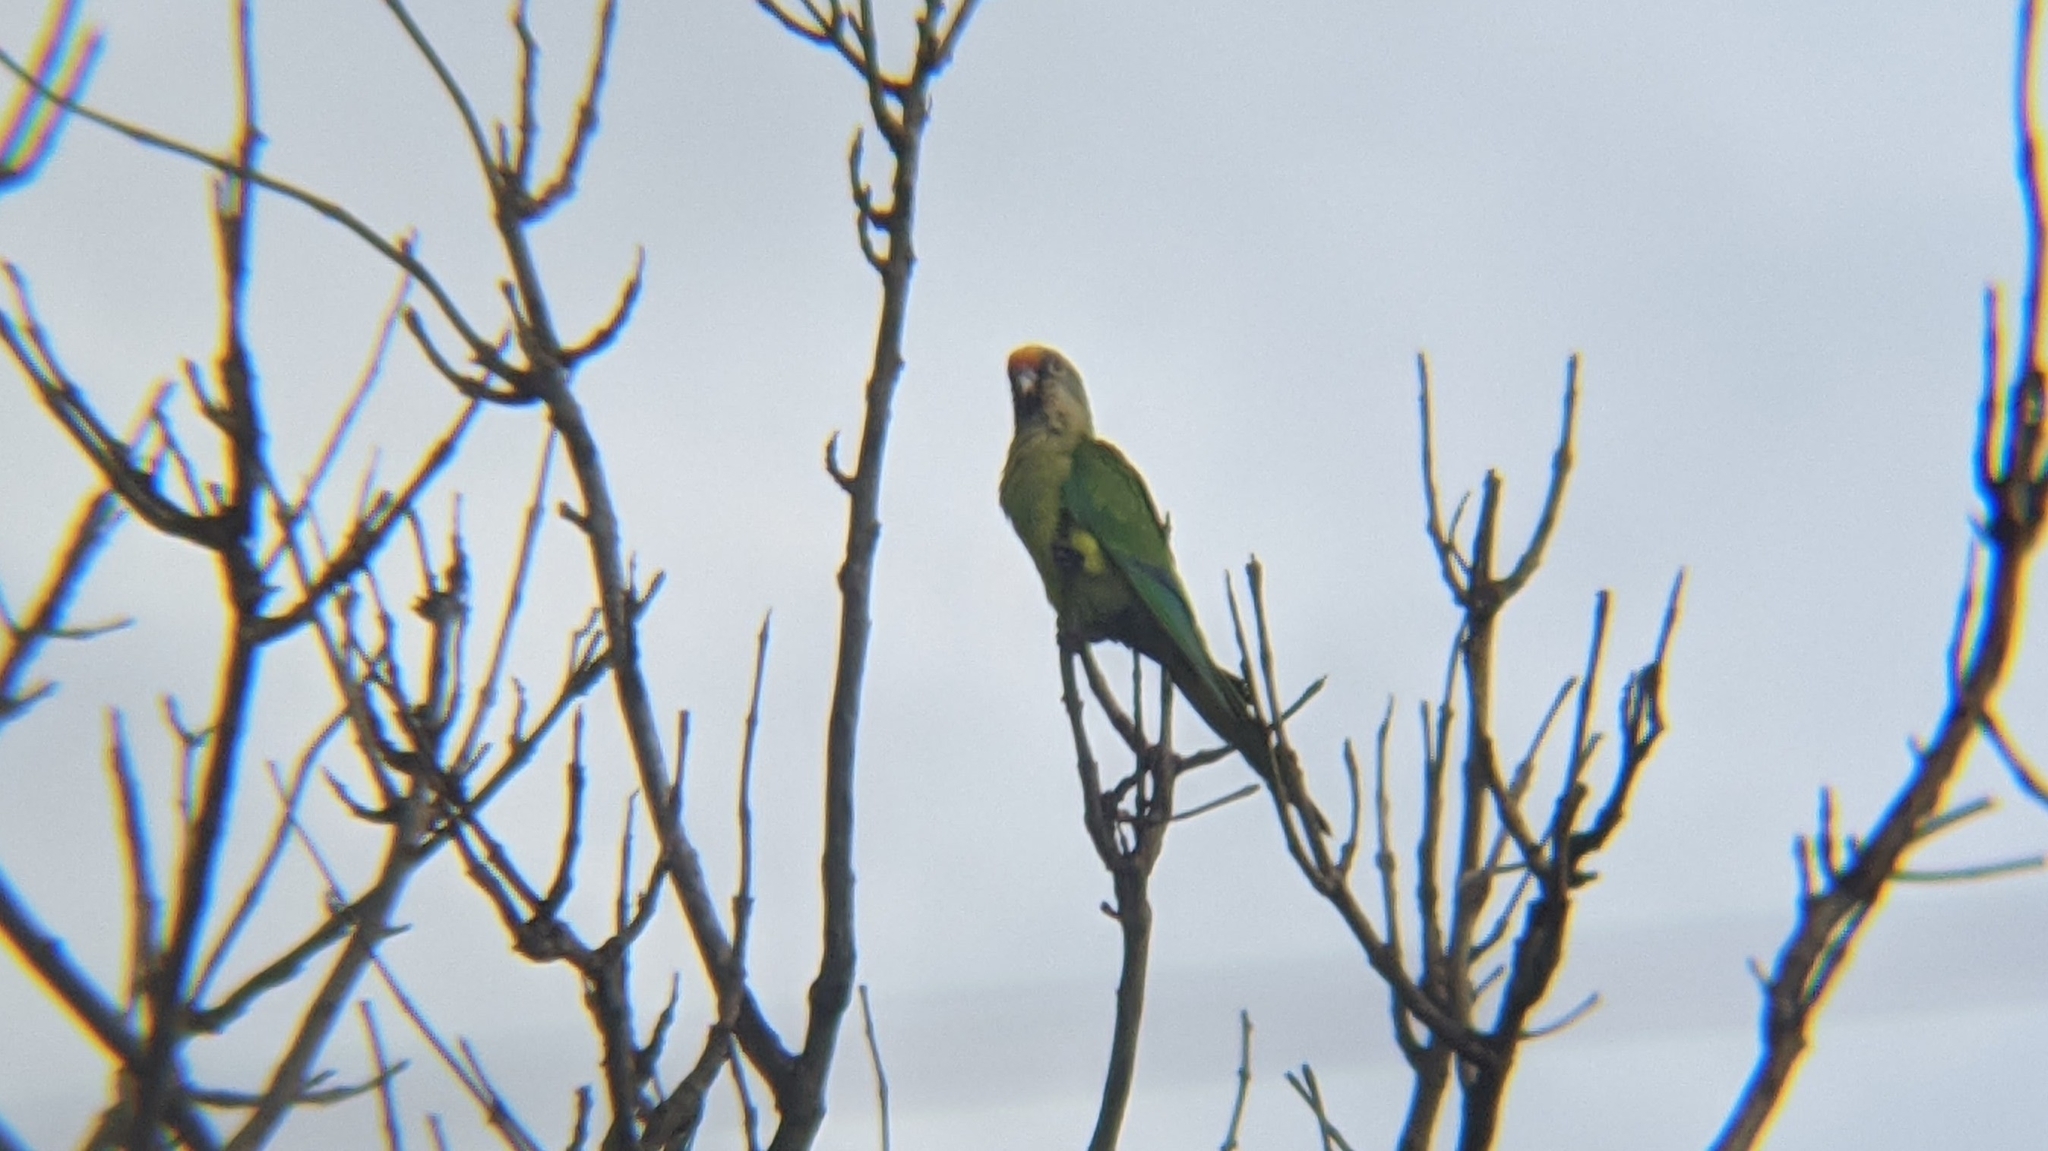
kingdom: Animalia
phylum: Chordata
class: Aves
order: Psittaciformes
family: Psittacidae
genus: Aratinga
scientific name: Aratinga aurea
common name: Peach-fronted parakeet
